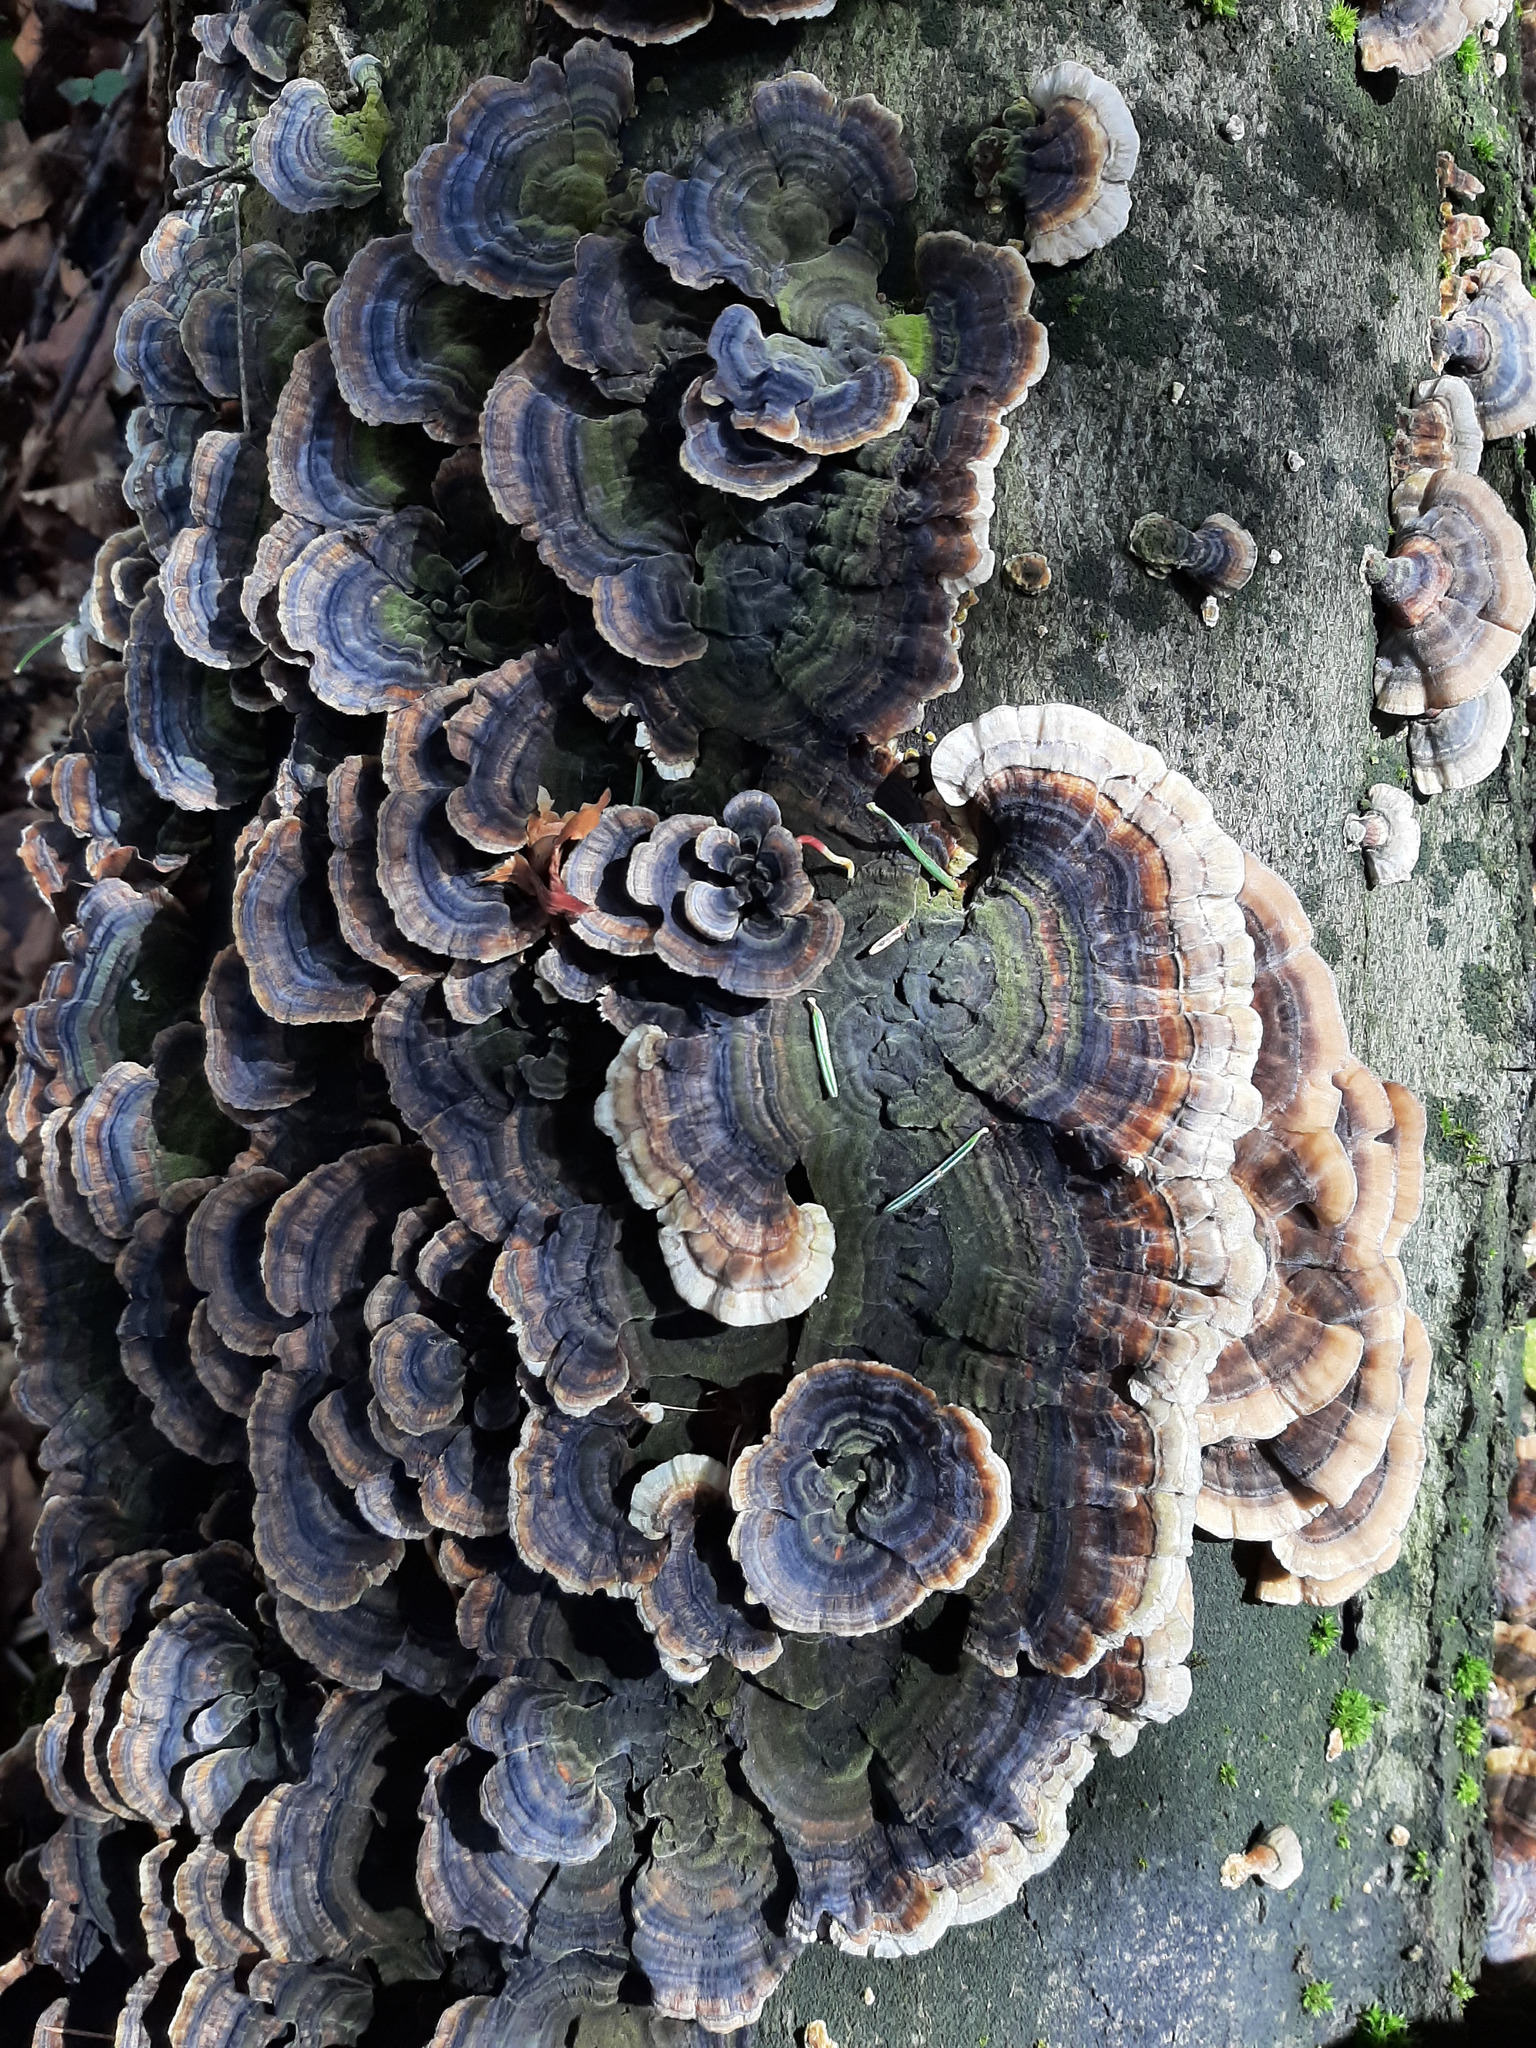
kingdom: Fungi
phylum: Basidiomycota
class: Agaricomycetes
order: Polyporales
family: Polyporaceae
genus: Trametes
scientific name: Trametes versicolor
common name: Turkeytail
